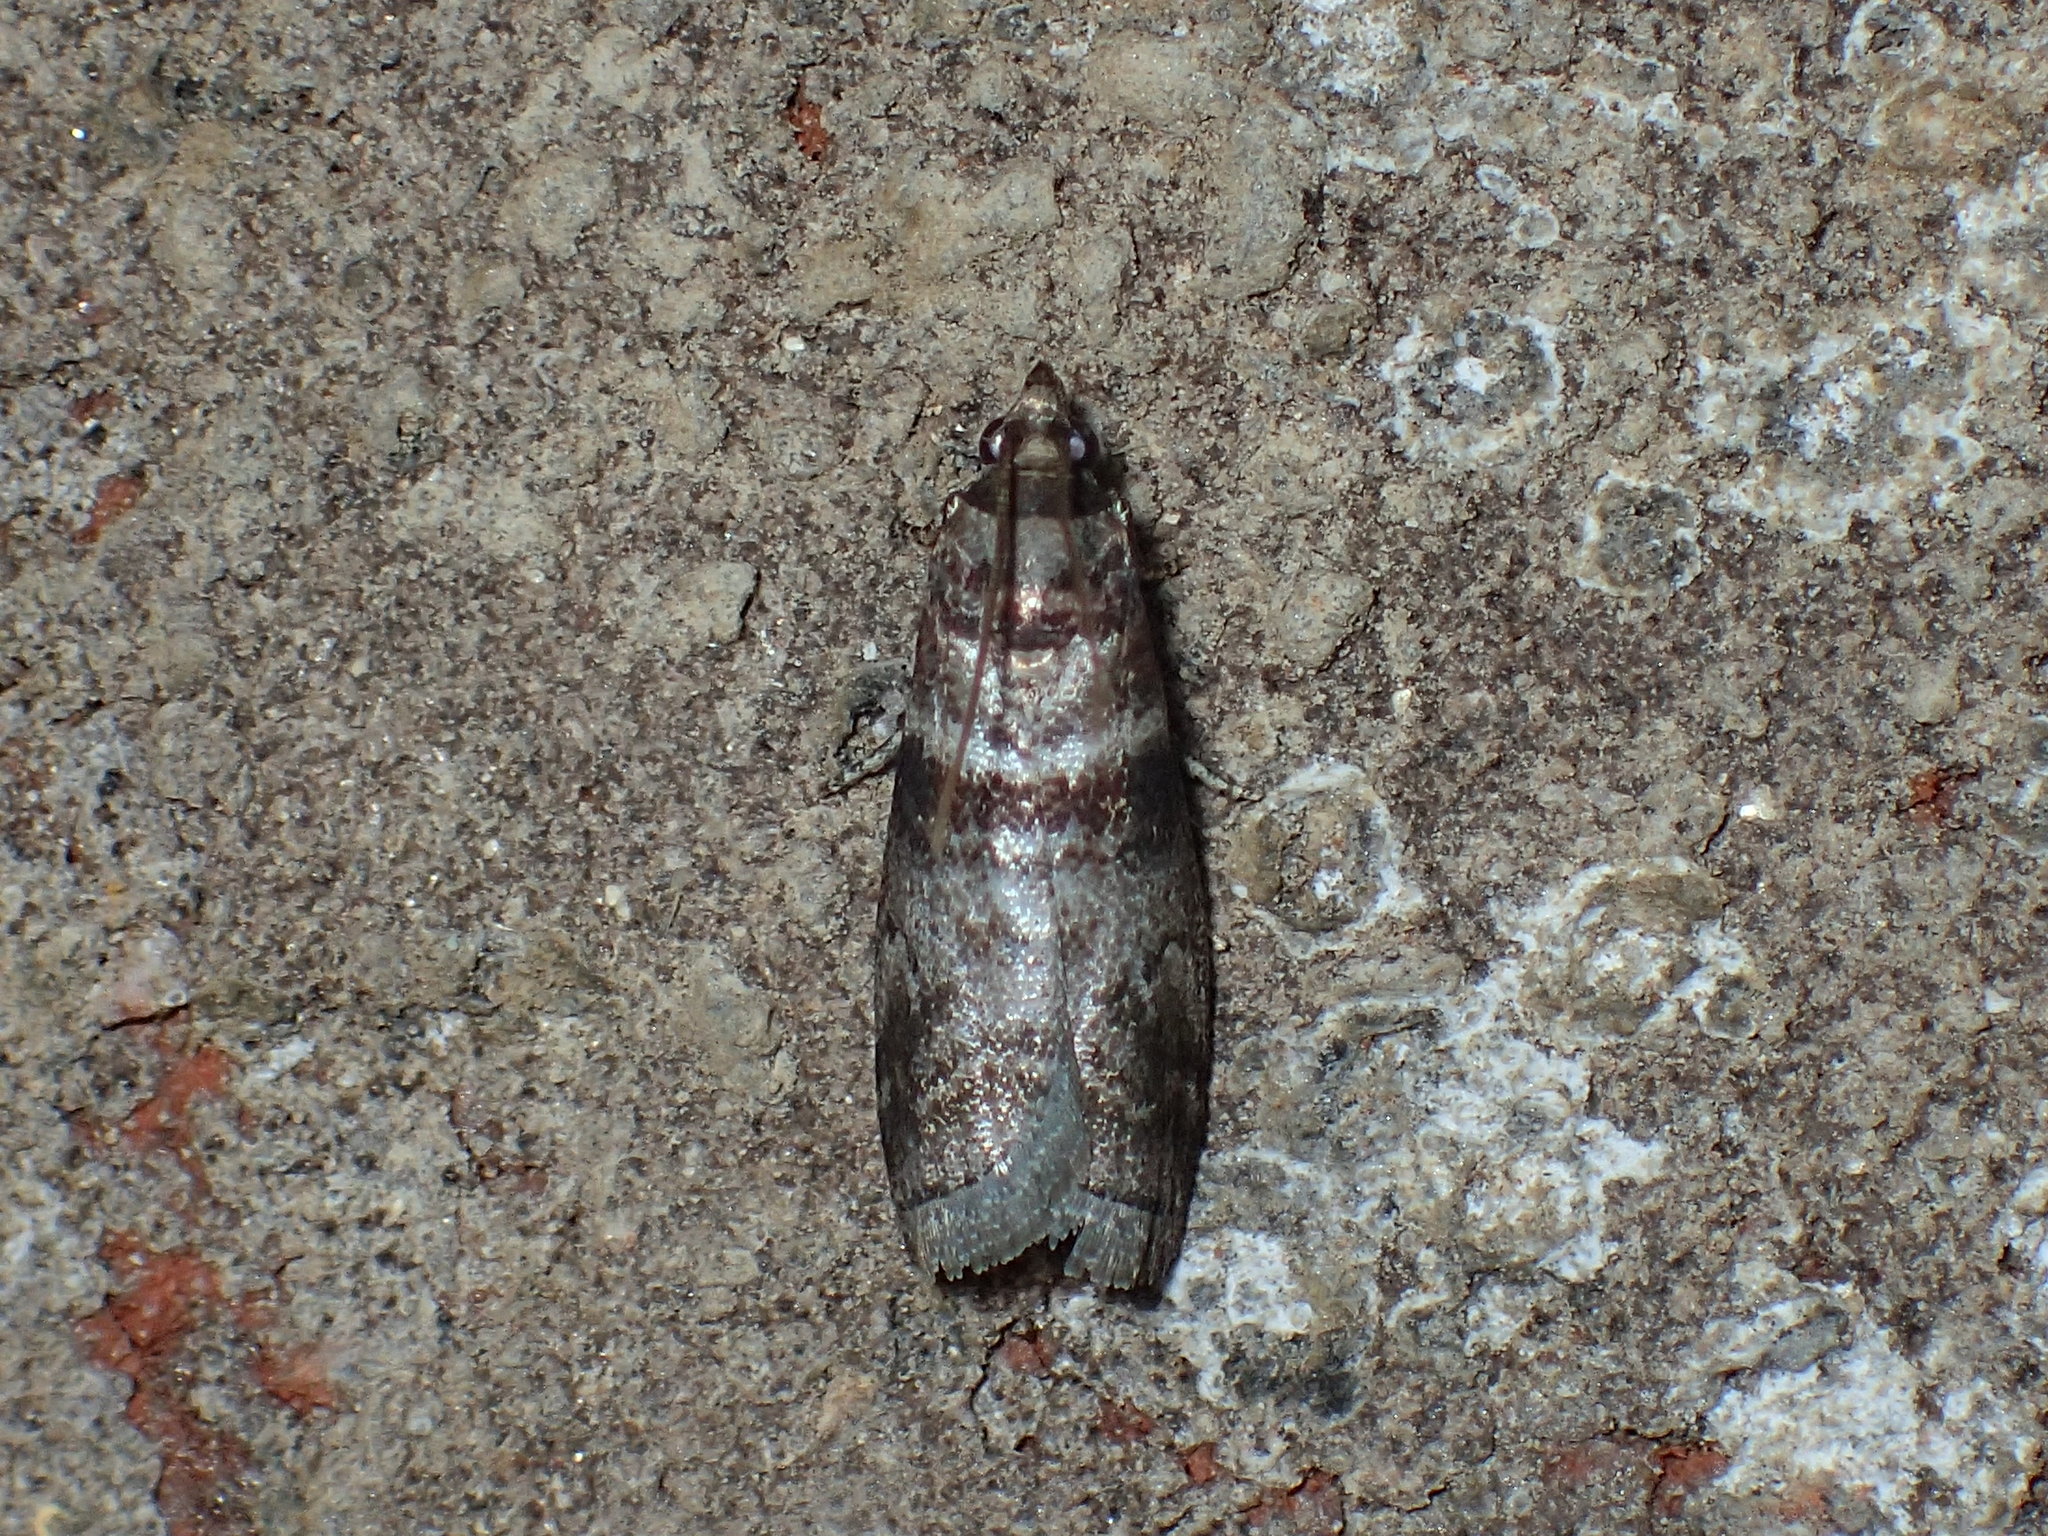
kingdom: Animalia
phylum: Arthropoda
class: Insecta
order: Lepidoptera
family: Pyralidae
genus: Sciota
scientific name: Sciota uvinella
